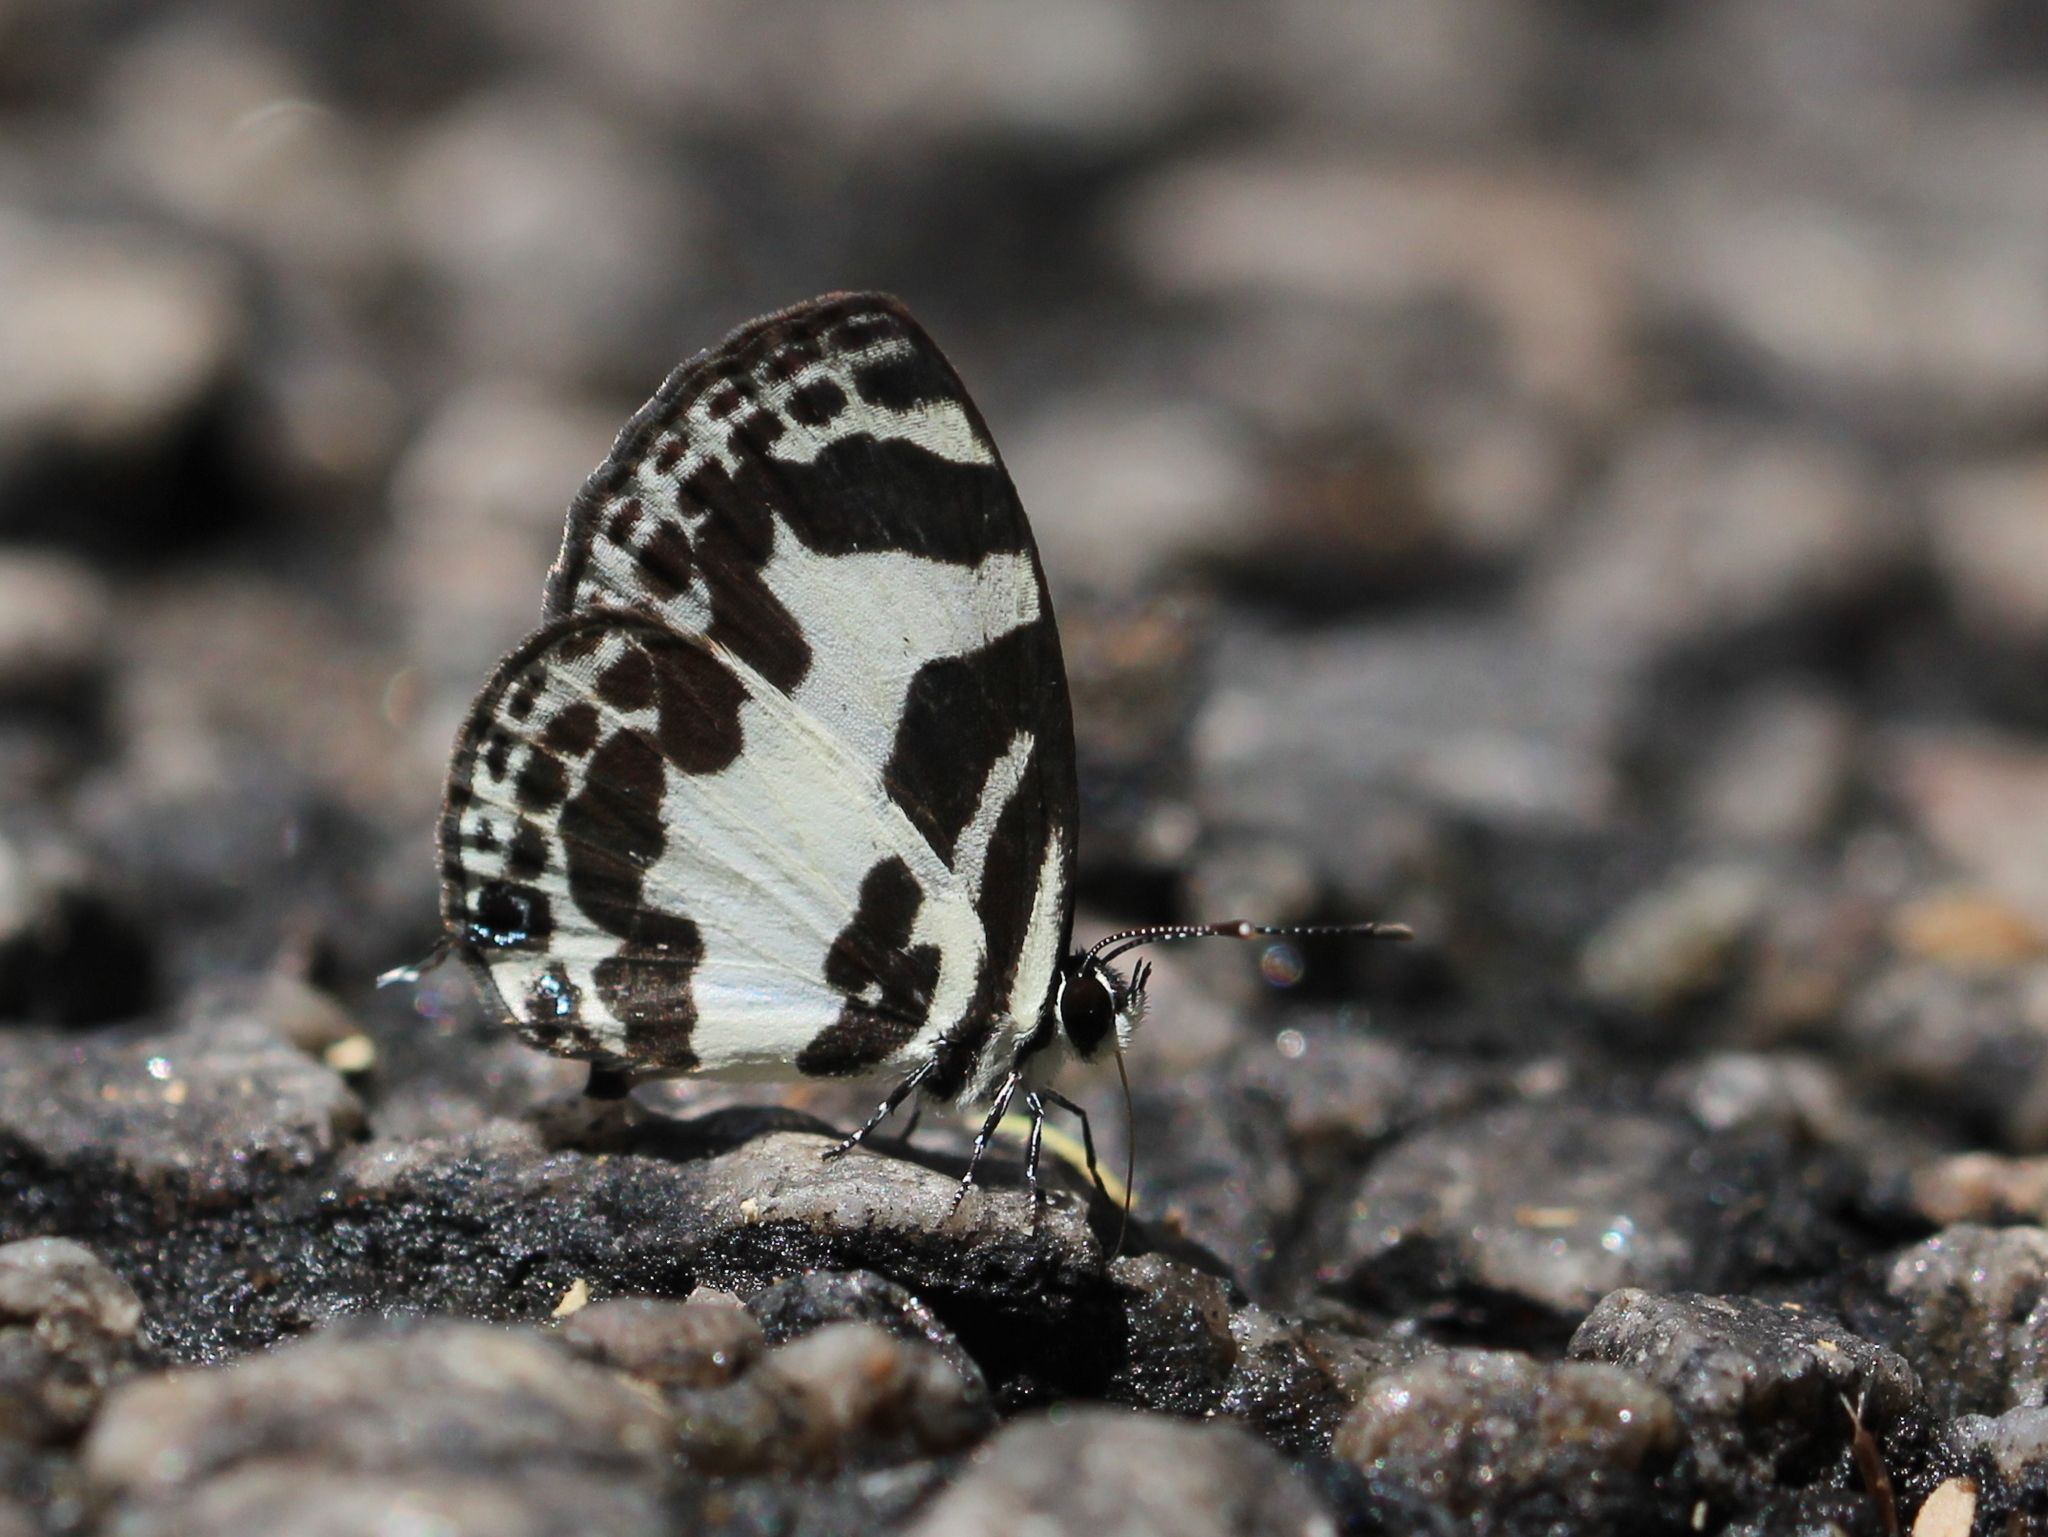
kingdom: Animalia
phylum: Arthropoda
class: Insecta
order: Lepidoptera
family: Lycaenidae
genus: Discolampa
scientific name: Discolampa ethion
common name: Banded blue pierrot
